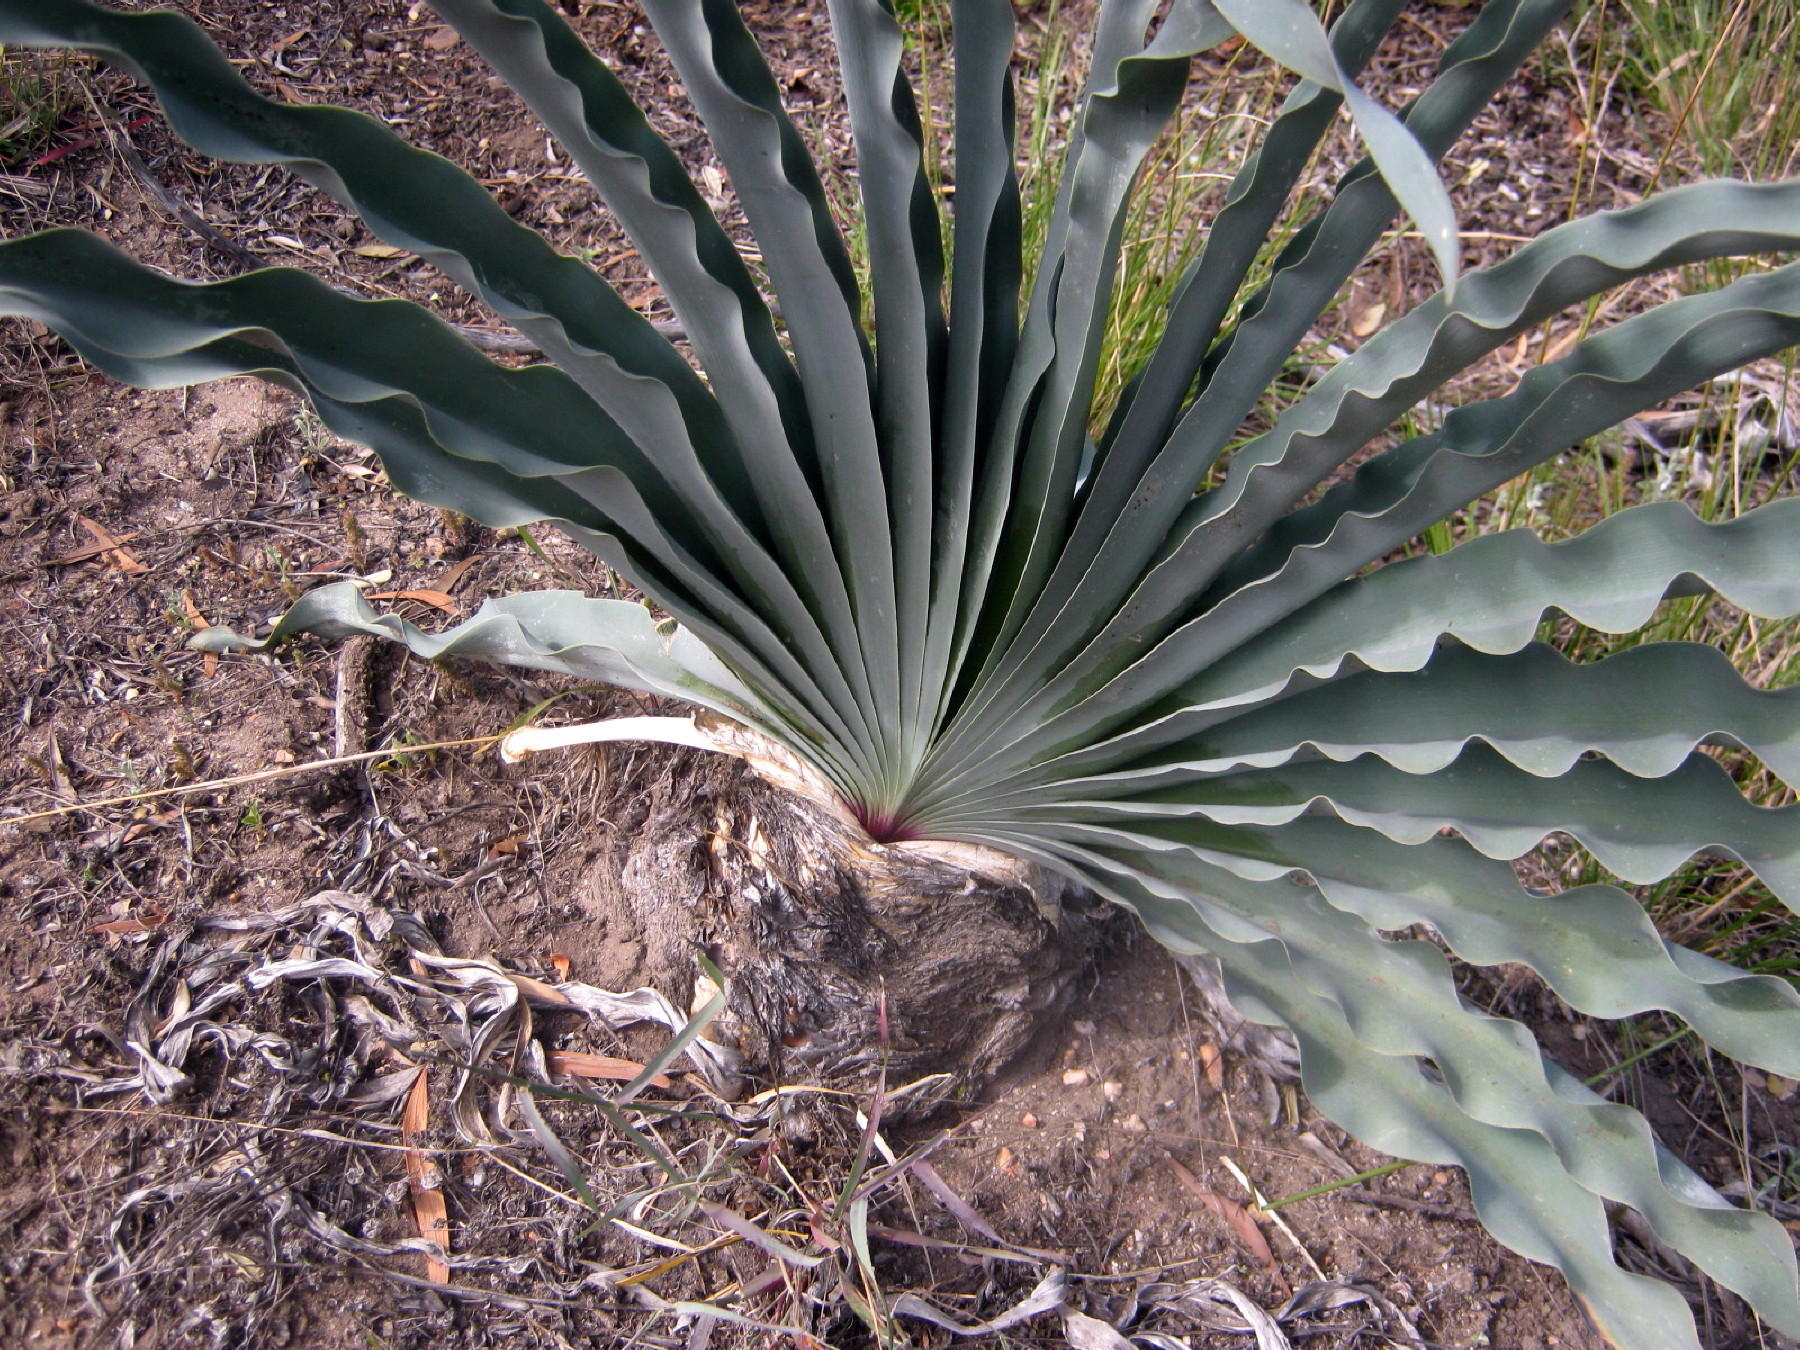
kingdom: Plantae
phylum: Tracheophyta
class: Liliopsida
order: Asparagales
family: Amaryllidaceae
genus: Boophone
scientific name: Boophone disticha
